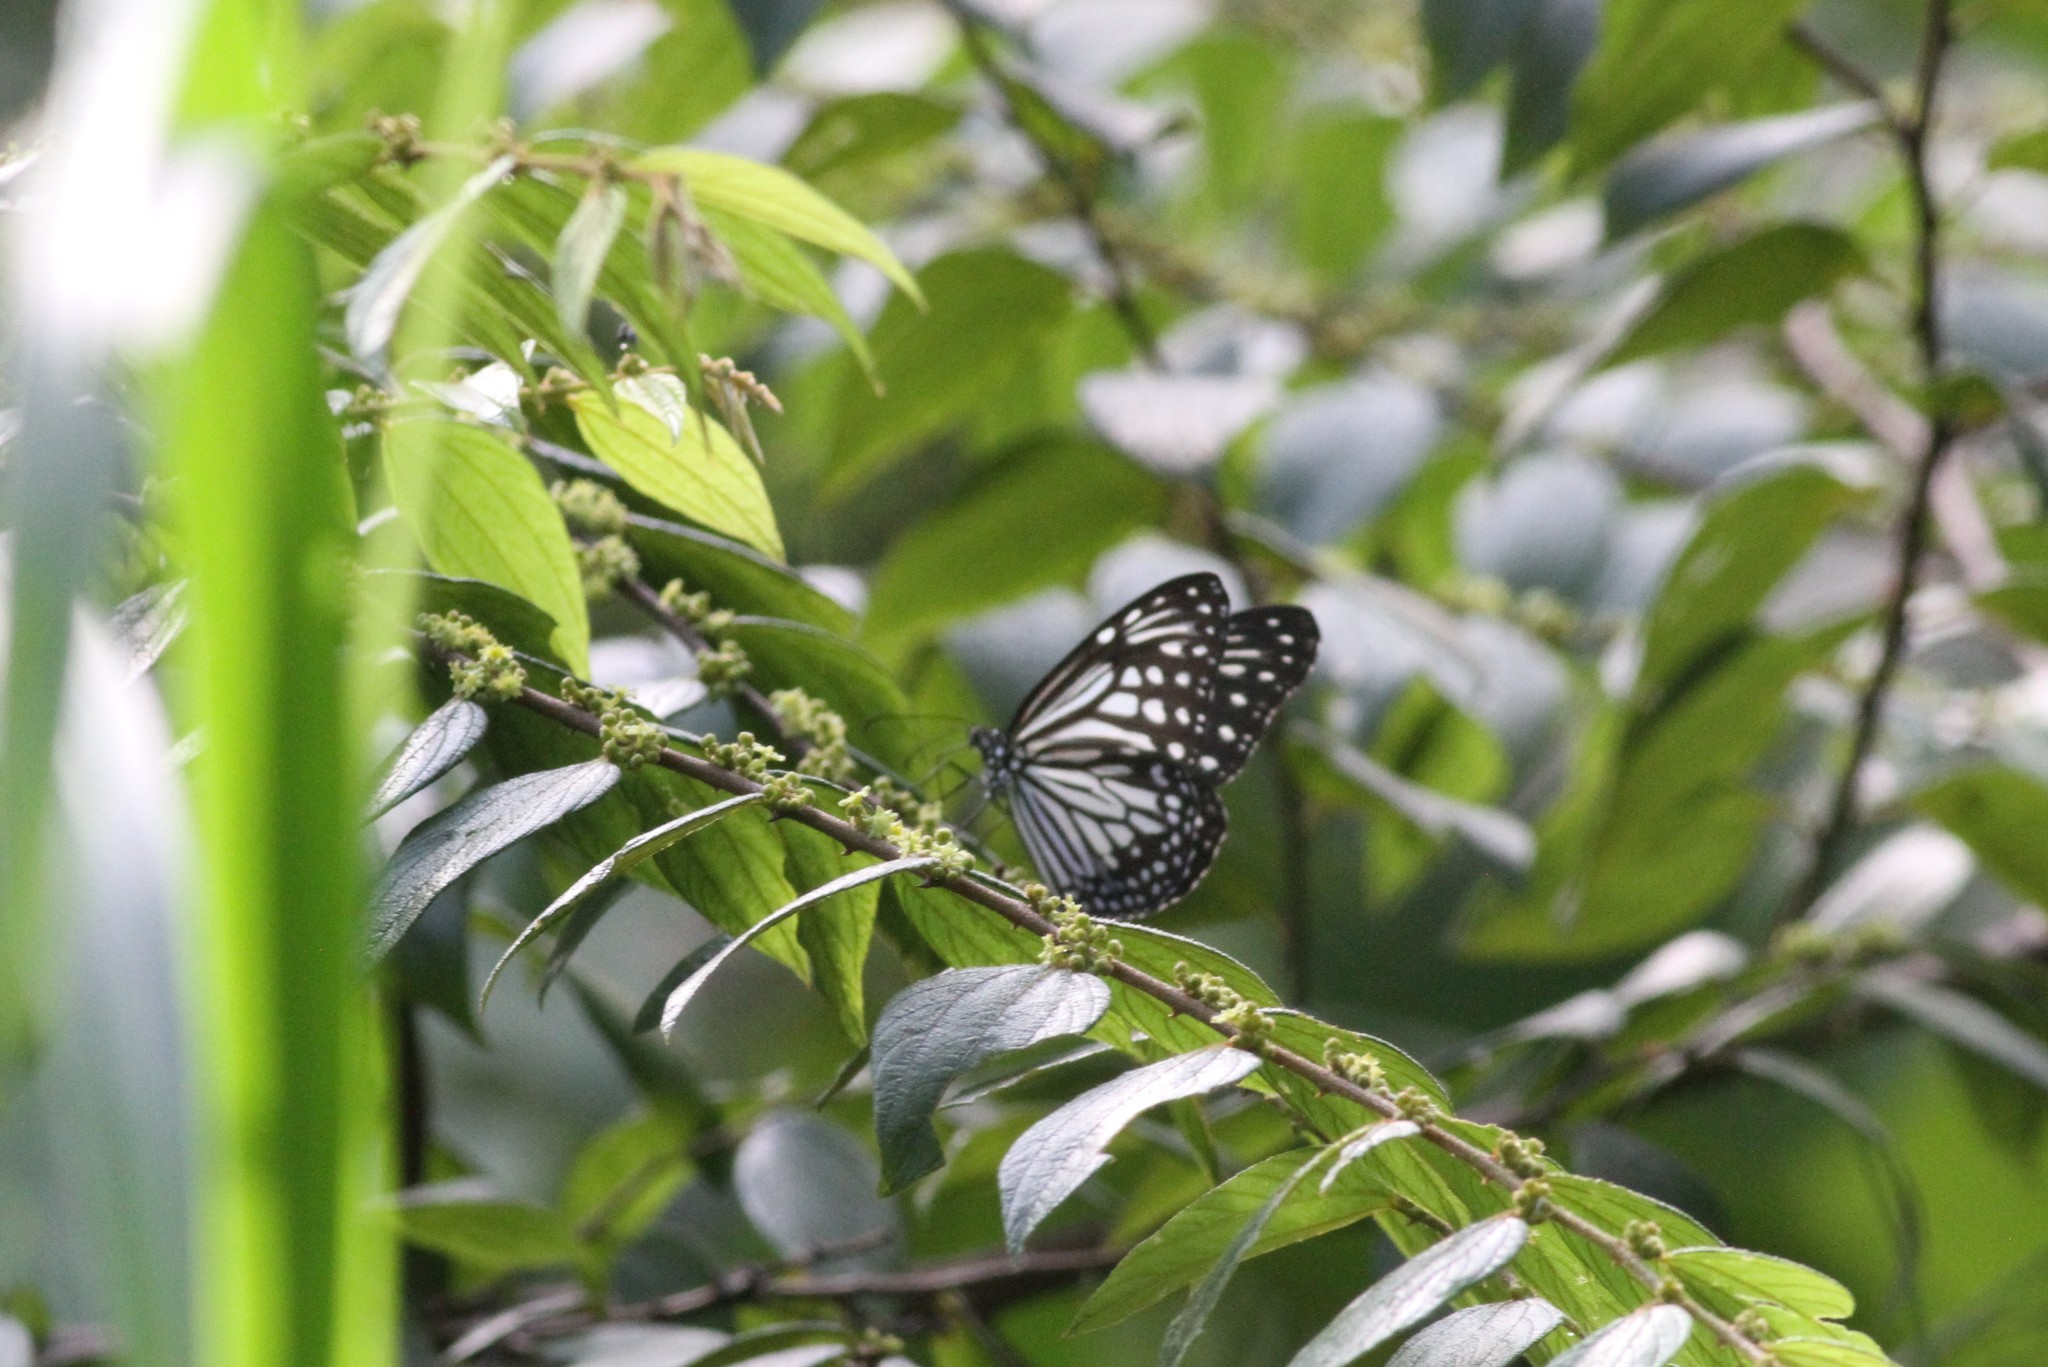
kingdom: Animalia
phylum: Arthropoda
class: Insecta
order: Lepidoptera
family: Nymphalidae
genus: Parantica
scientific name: Parantica aglea
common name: Glassy tiger
